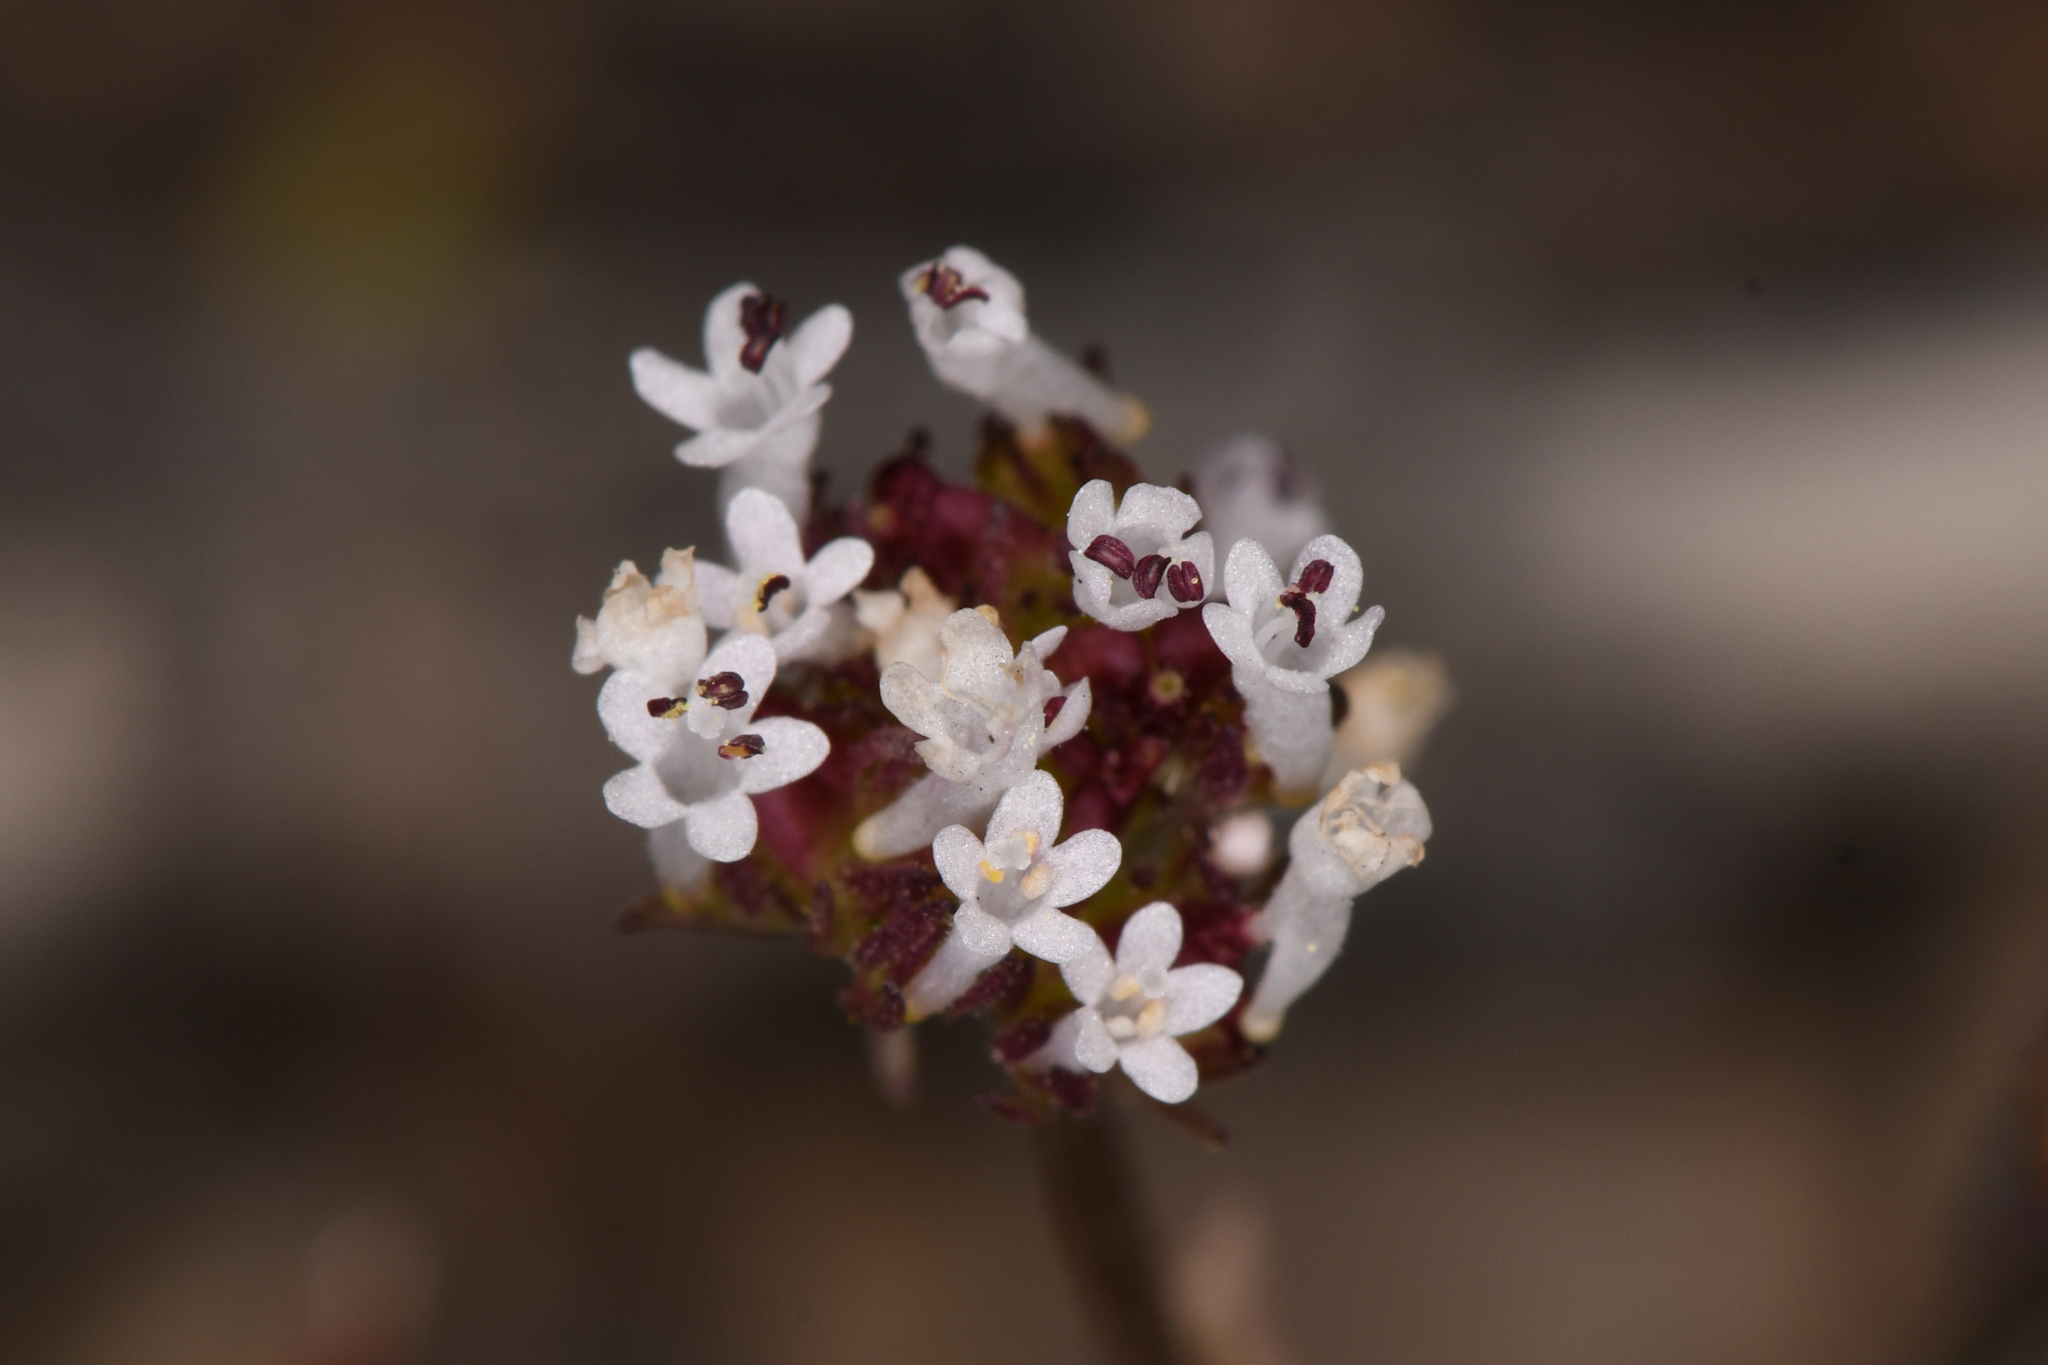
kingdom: Plantae
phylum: Tracheophyta
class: Magnoliopsida
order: Dipsacales
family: Caprifoliaceae
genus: Plectritis
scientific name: Plectritis macroptera
